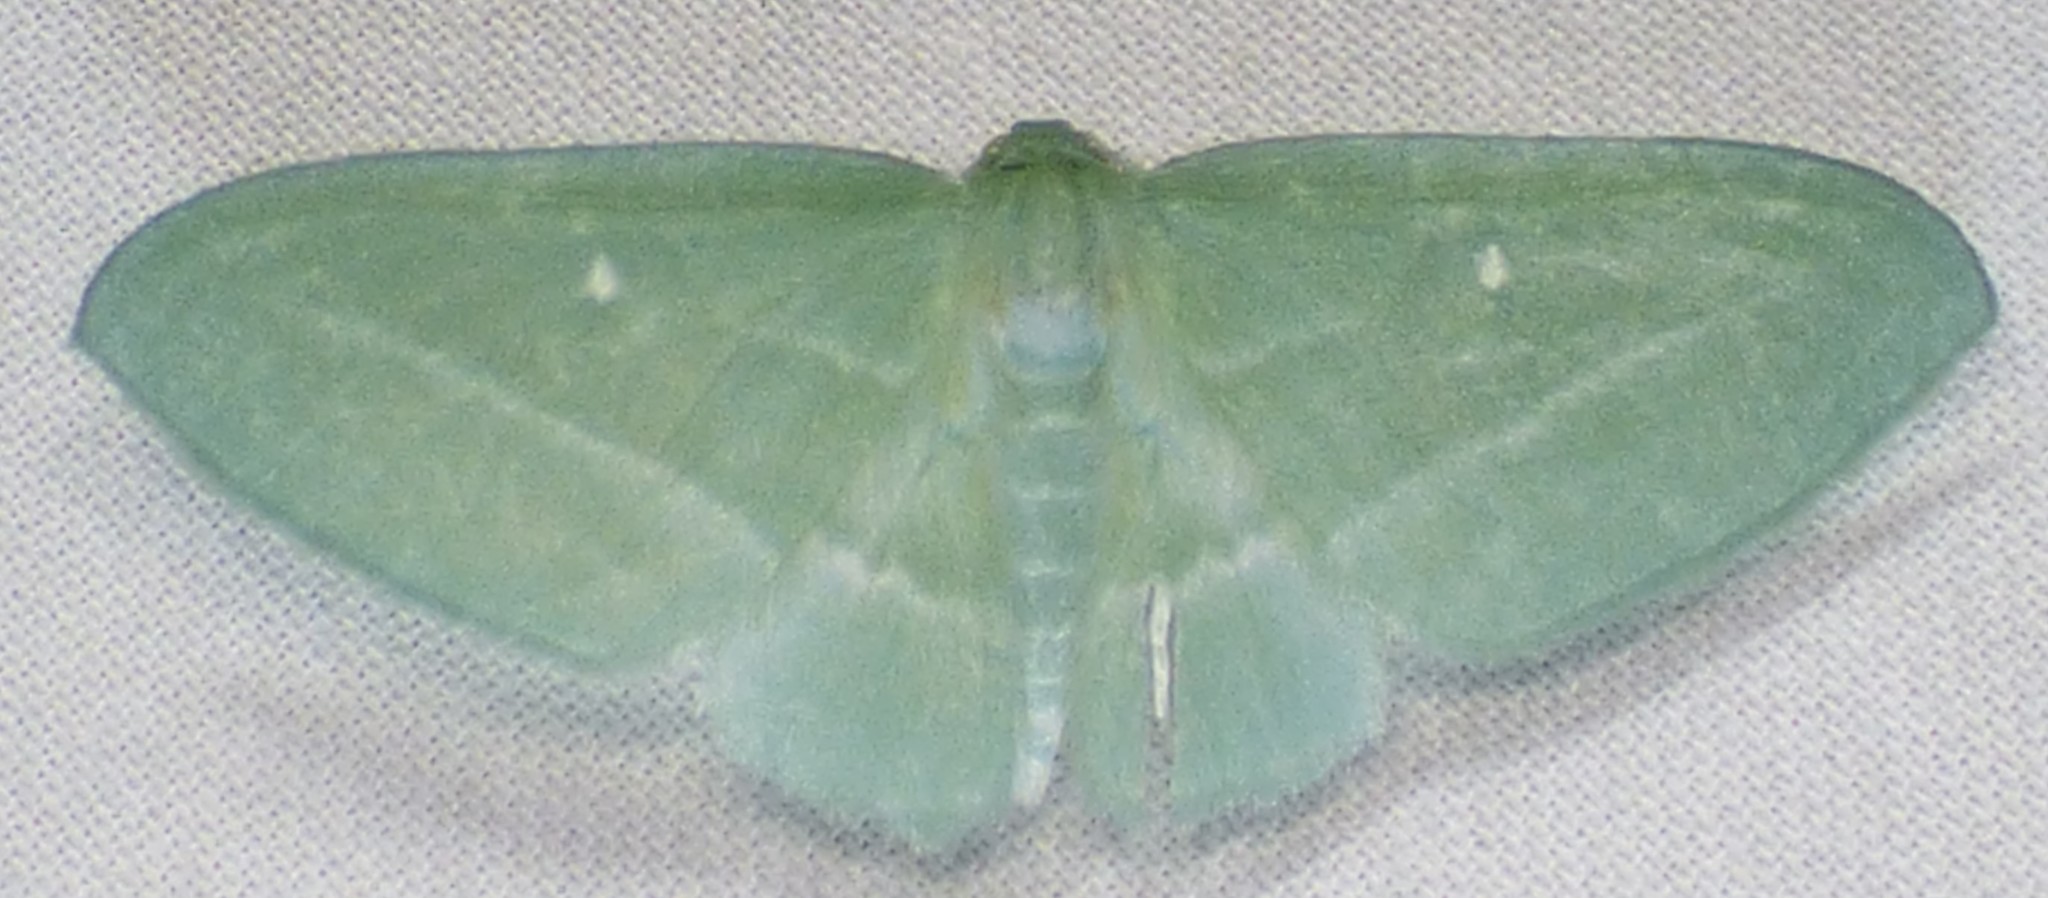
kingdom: Animalia
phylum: Arthropoda
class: Insecta
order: Lepidoptera
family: Geometridae
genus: Dyspteris
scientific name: Dyspteris abortivaria
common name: Bad-wing
